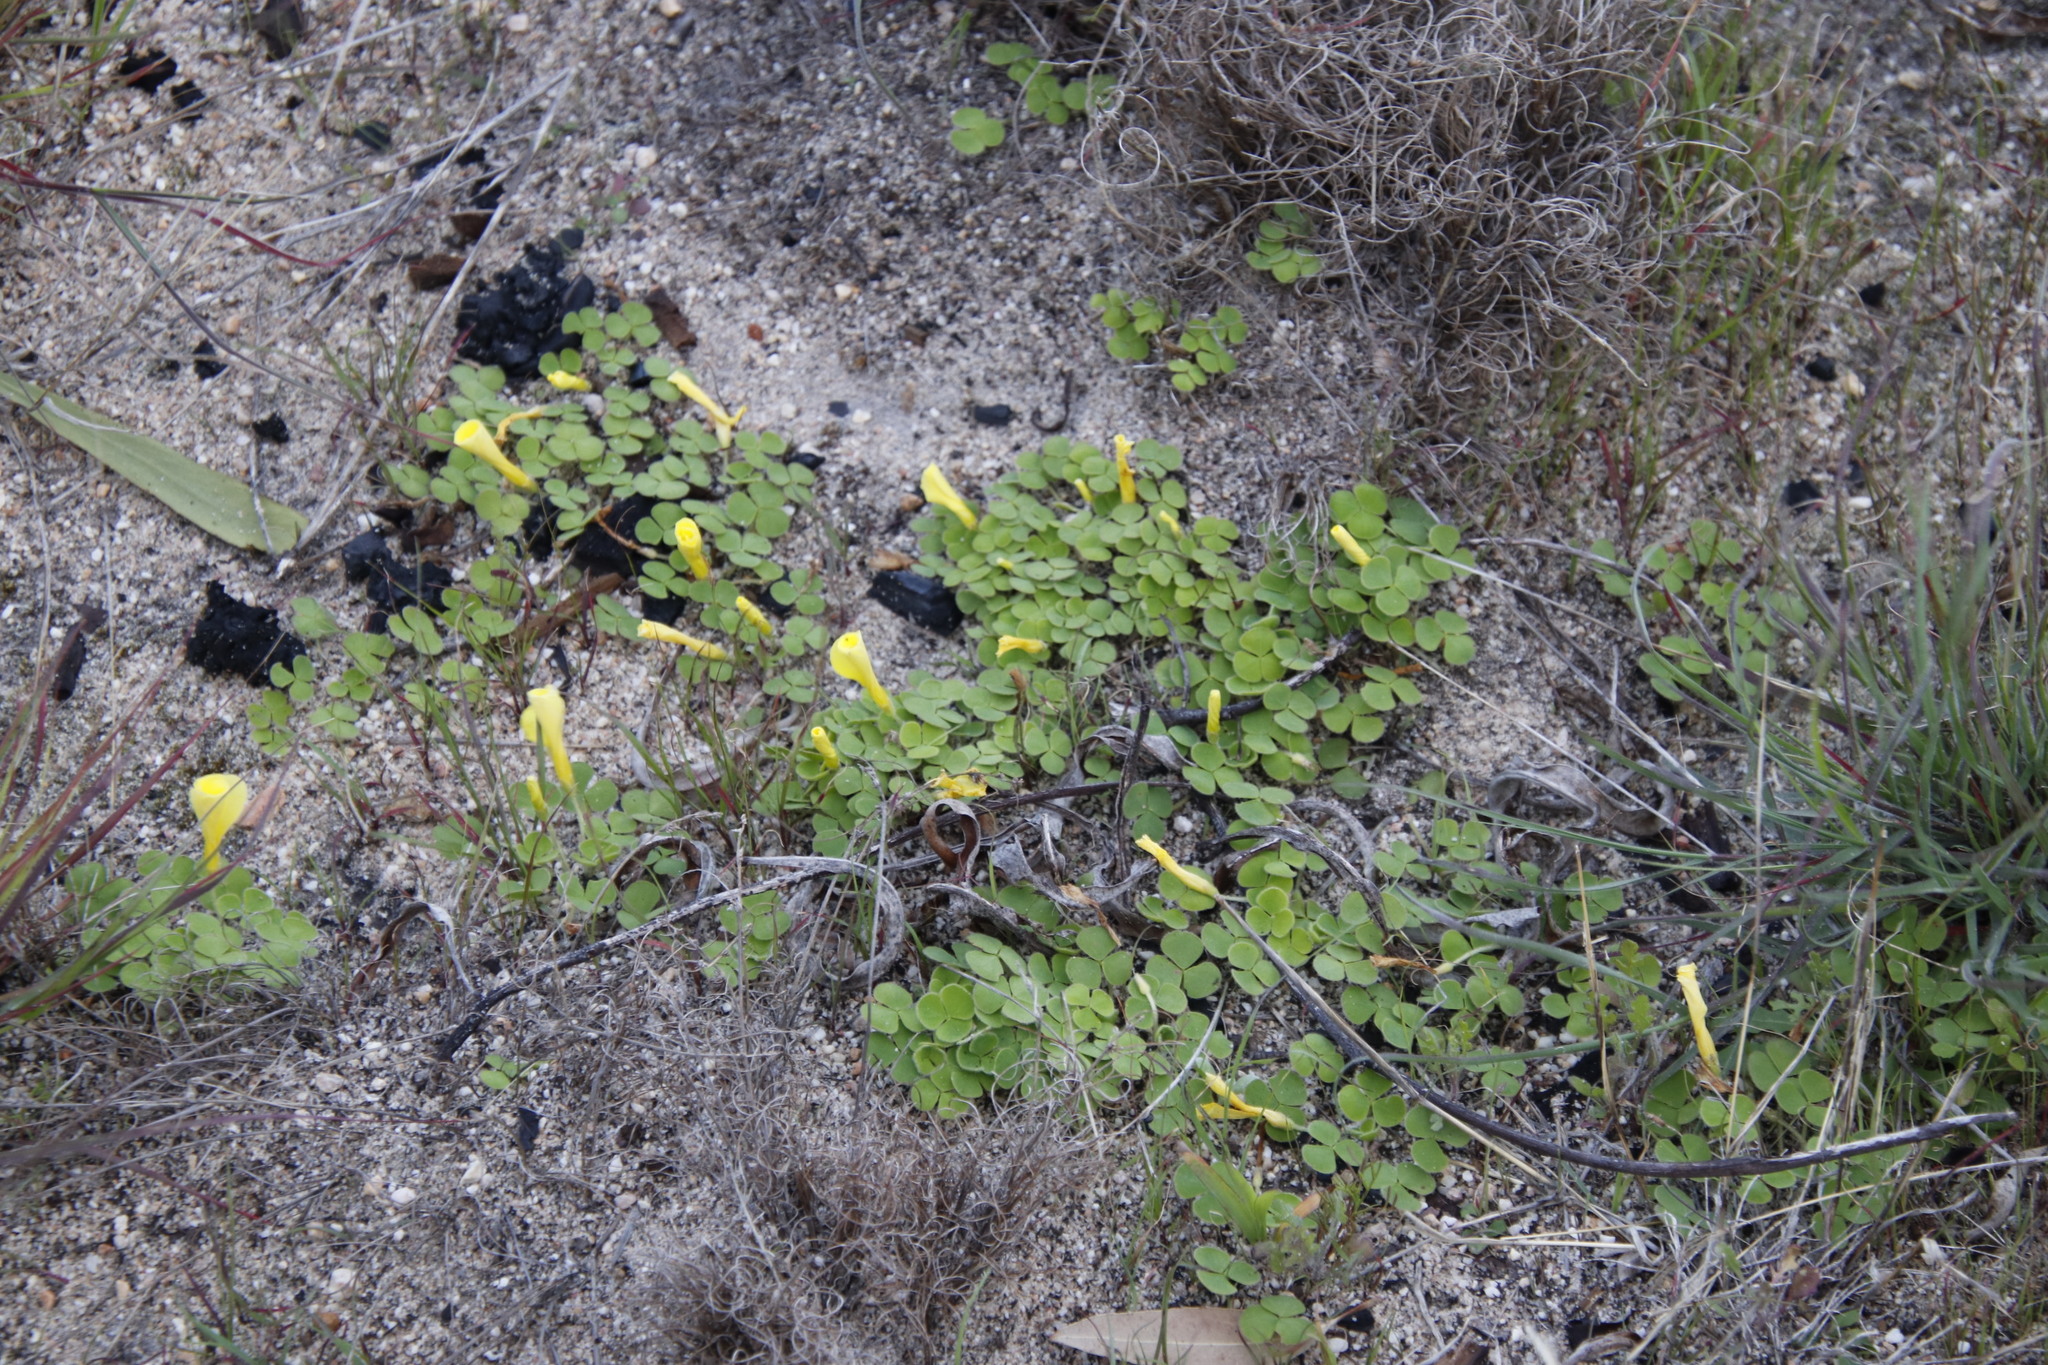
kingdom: Plantae
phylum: Tracheophyta
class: Magnoliopsida
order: Oxalidales
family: Oxalidaceae
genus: Oxalis
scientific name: Oxalis luteola
